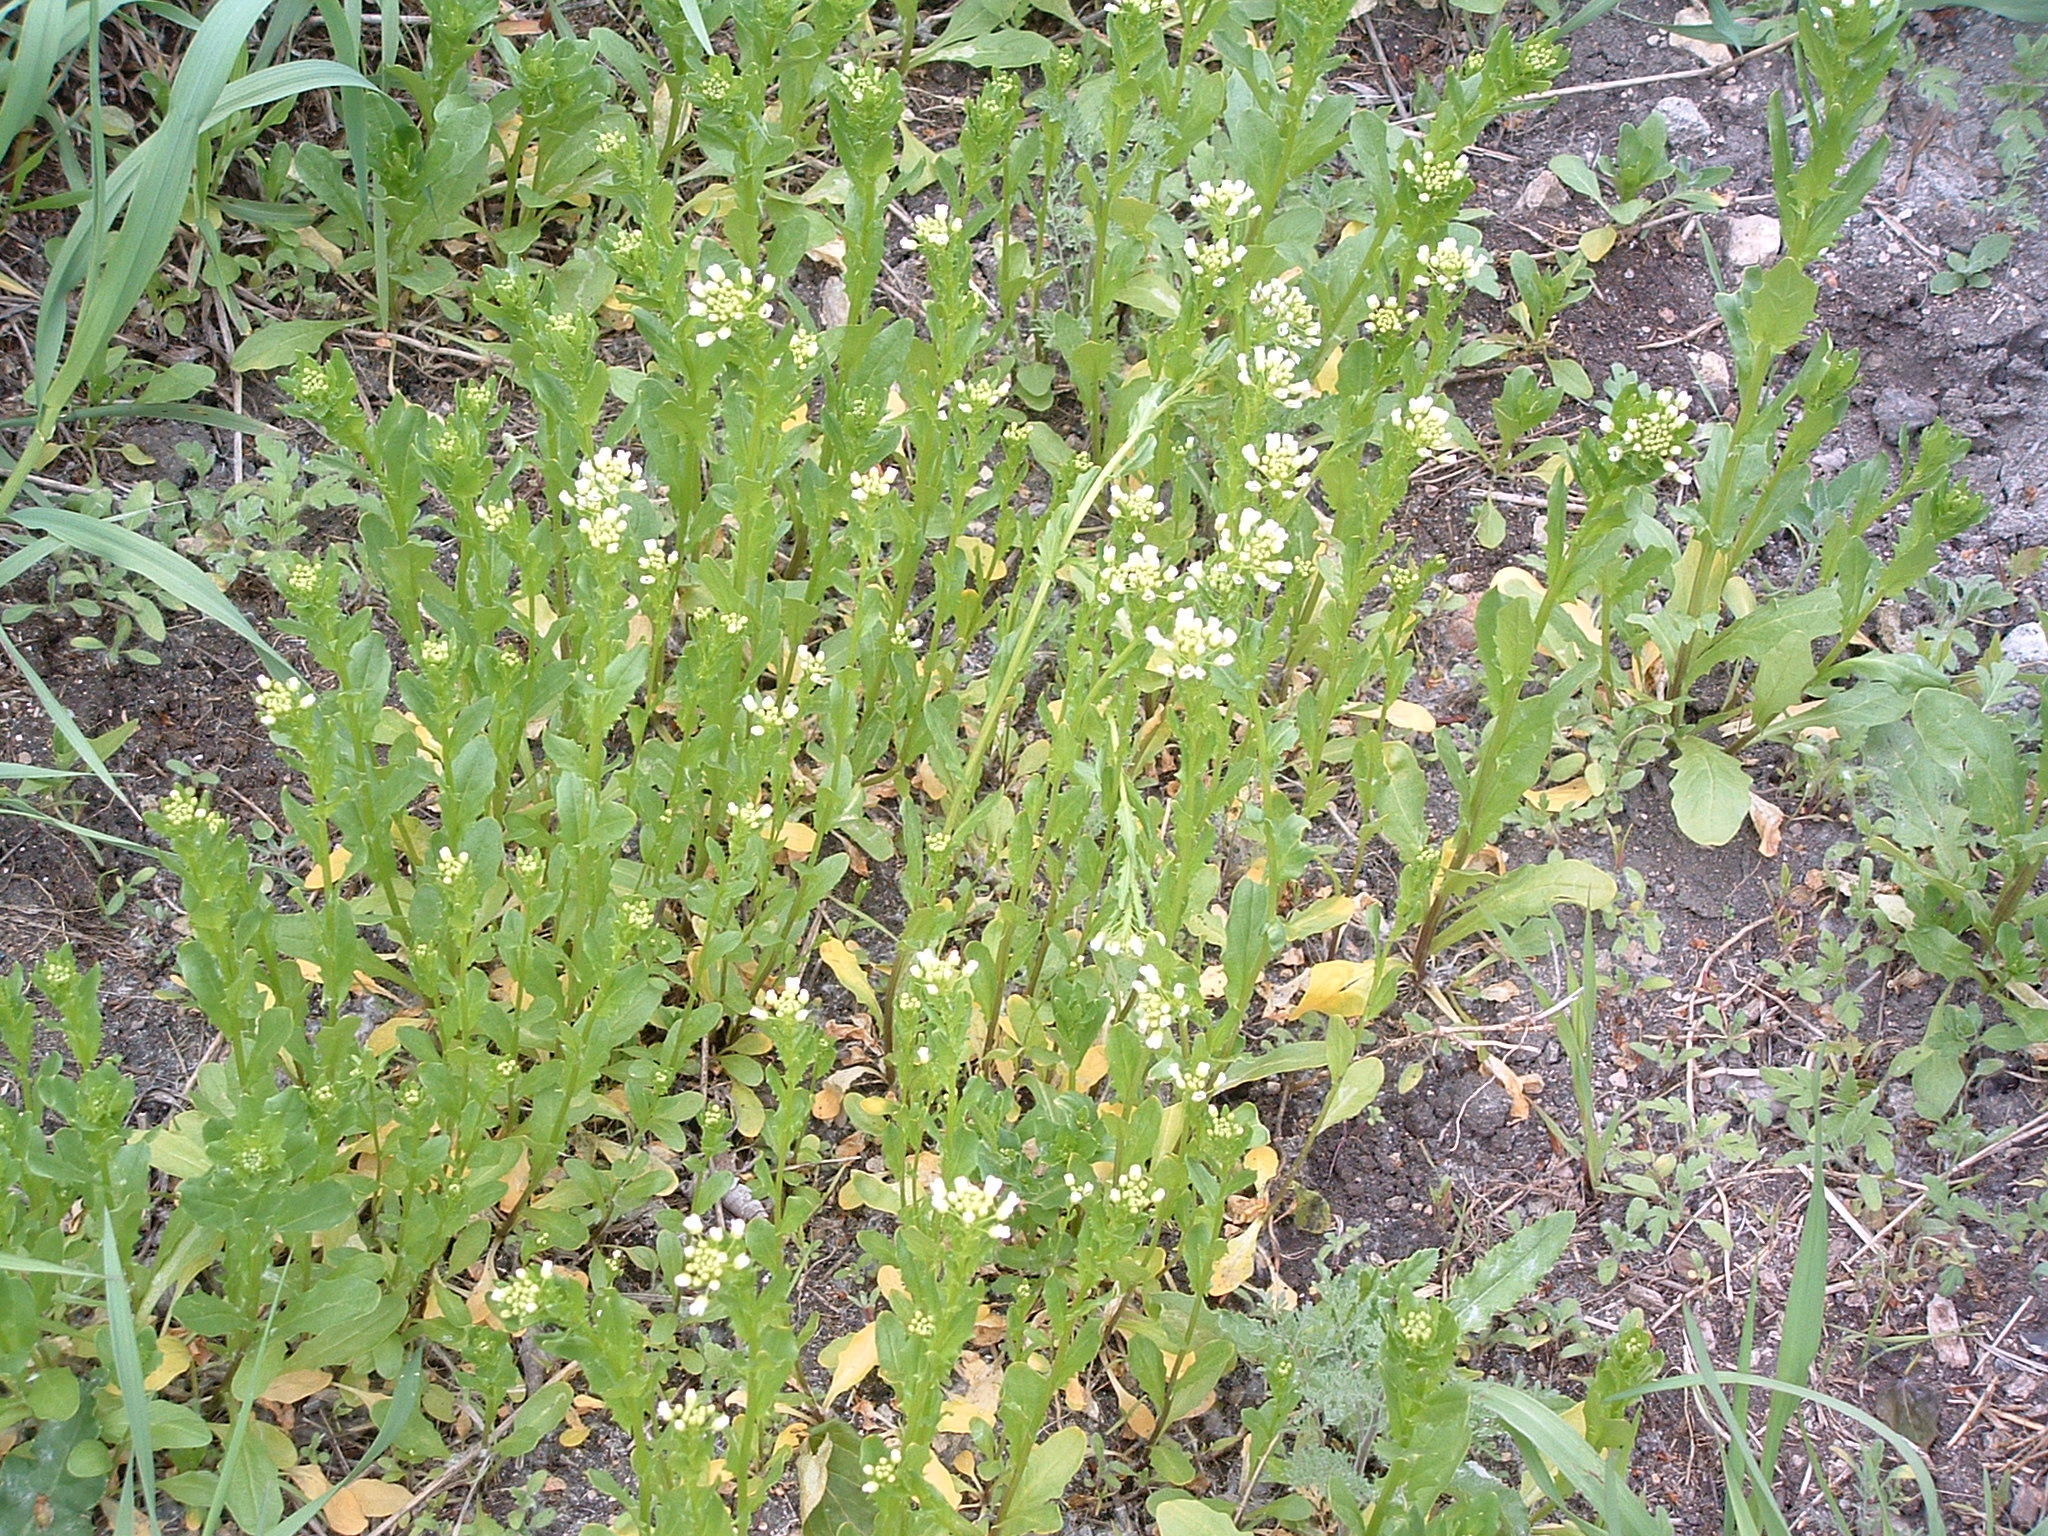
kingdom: Plantae
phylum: Tracheophyta
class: Magnoliopsida
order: Brassicales
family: Brassicaceae
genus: Thlaspi
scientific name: Thlaspi arvense
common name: Field pennycress
